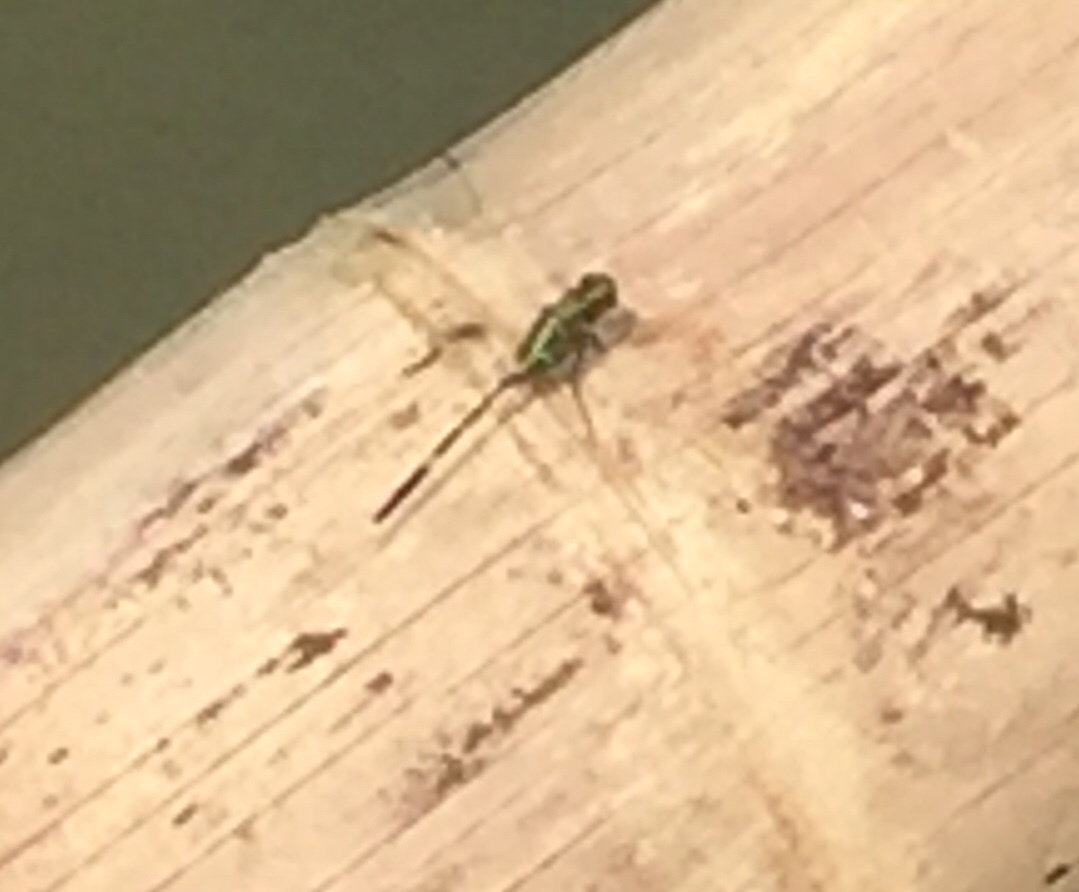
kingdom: Animalia
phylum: Arthropoda
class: Insecta
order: Odonata
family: Libellulidae
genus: Orthetrum
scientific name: Orthetrum sabina
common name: Slender skimmer
